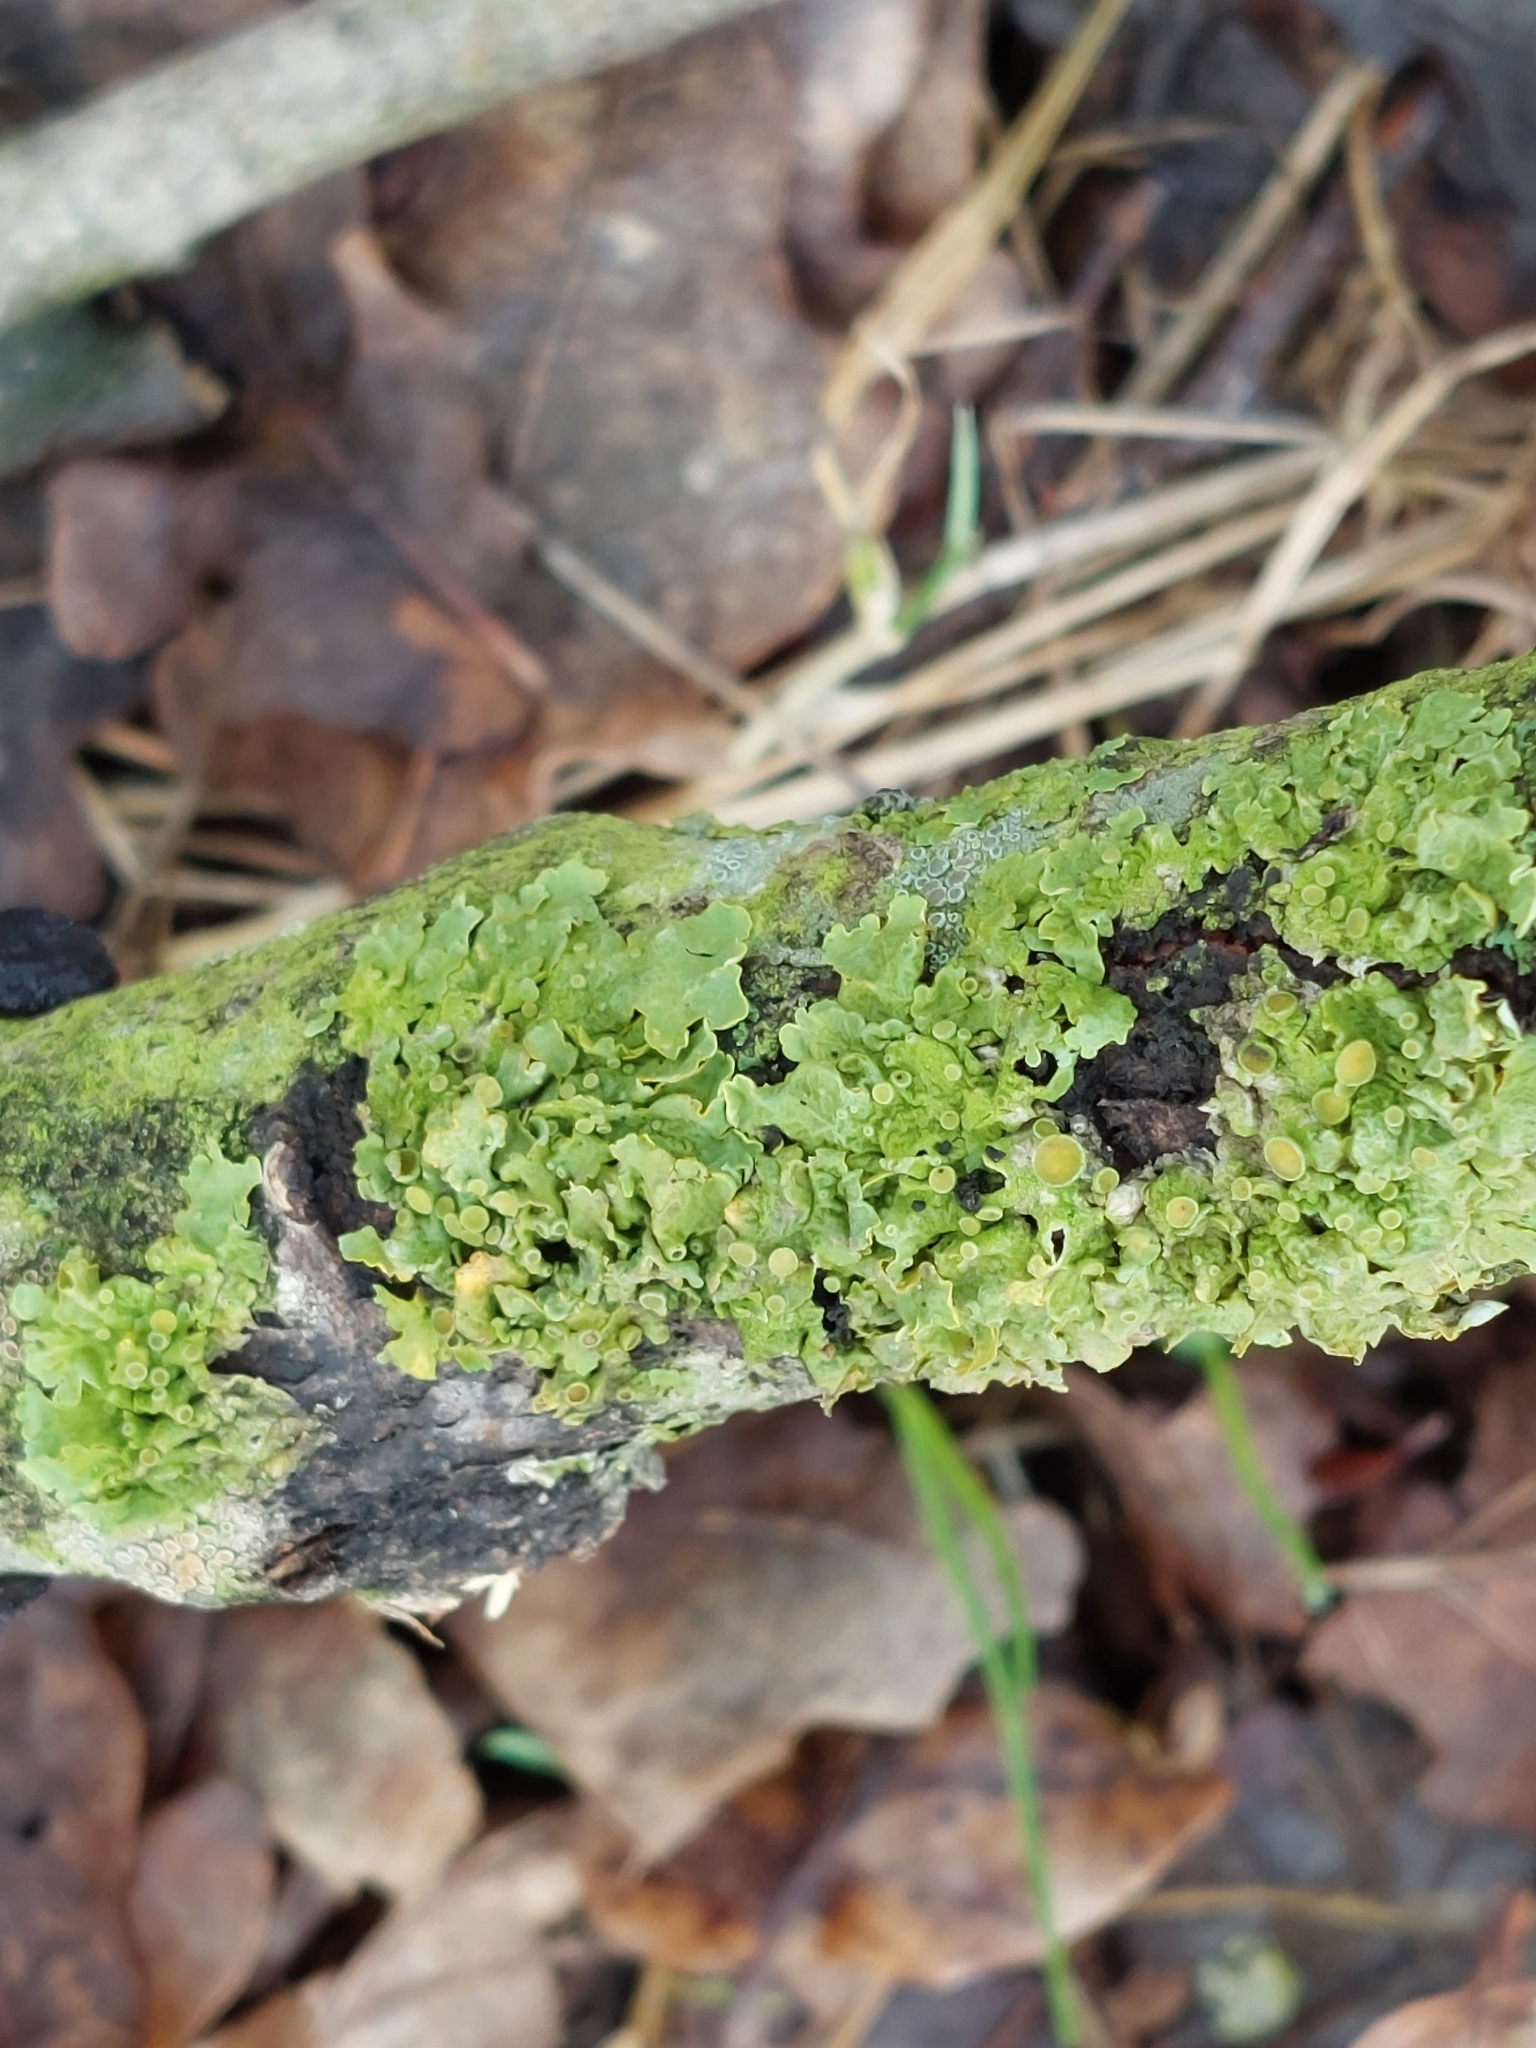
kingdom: Fungi
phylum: Ascomycota
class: Lecanoromycetes
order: Teloschistales
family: Teloschistaceae
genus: Xanthoria
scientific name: Xanthoria parietina
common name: Common orange lichen
